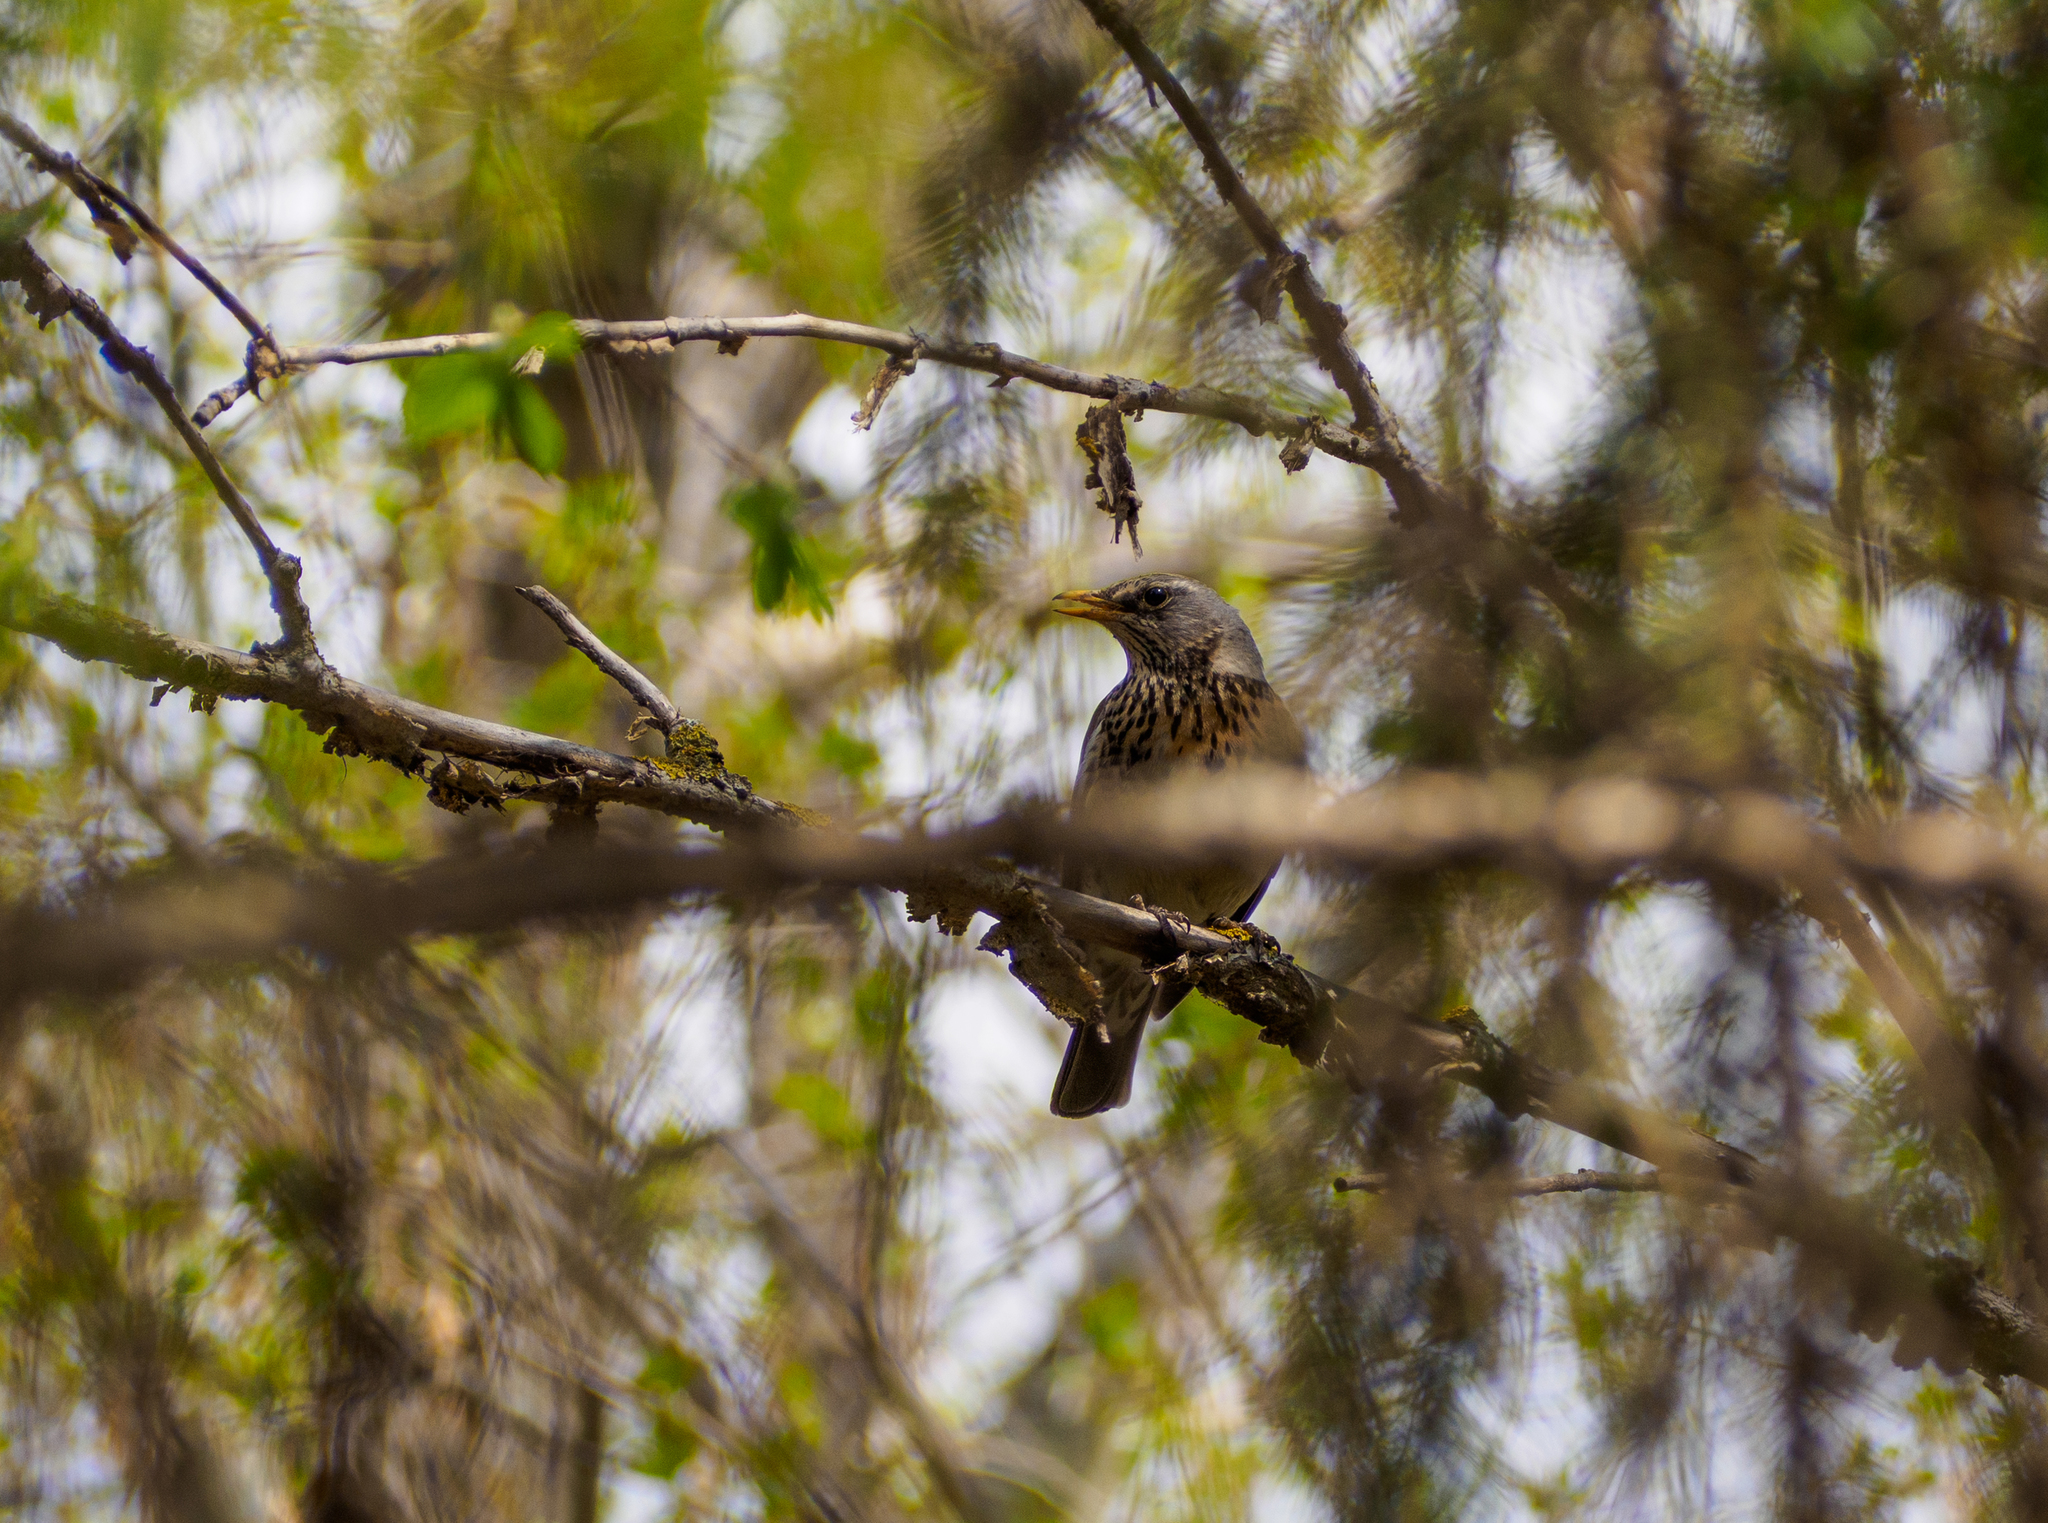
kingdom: Animalia
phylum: Chordata
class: Aves
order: Passeriformes
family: Turdidae
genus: Turdus
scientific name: Turdus pilaris
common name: Fieldfare
